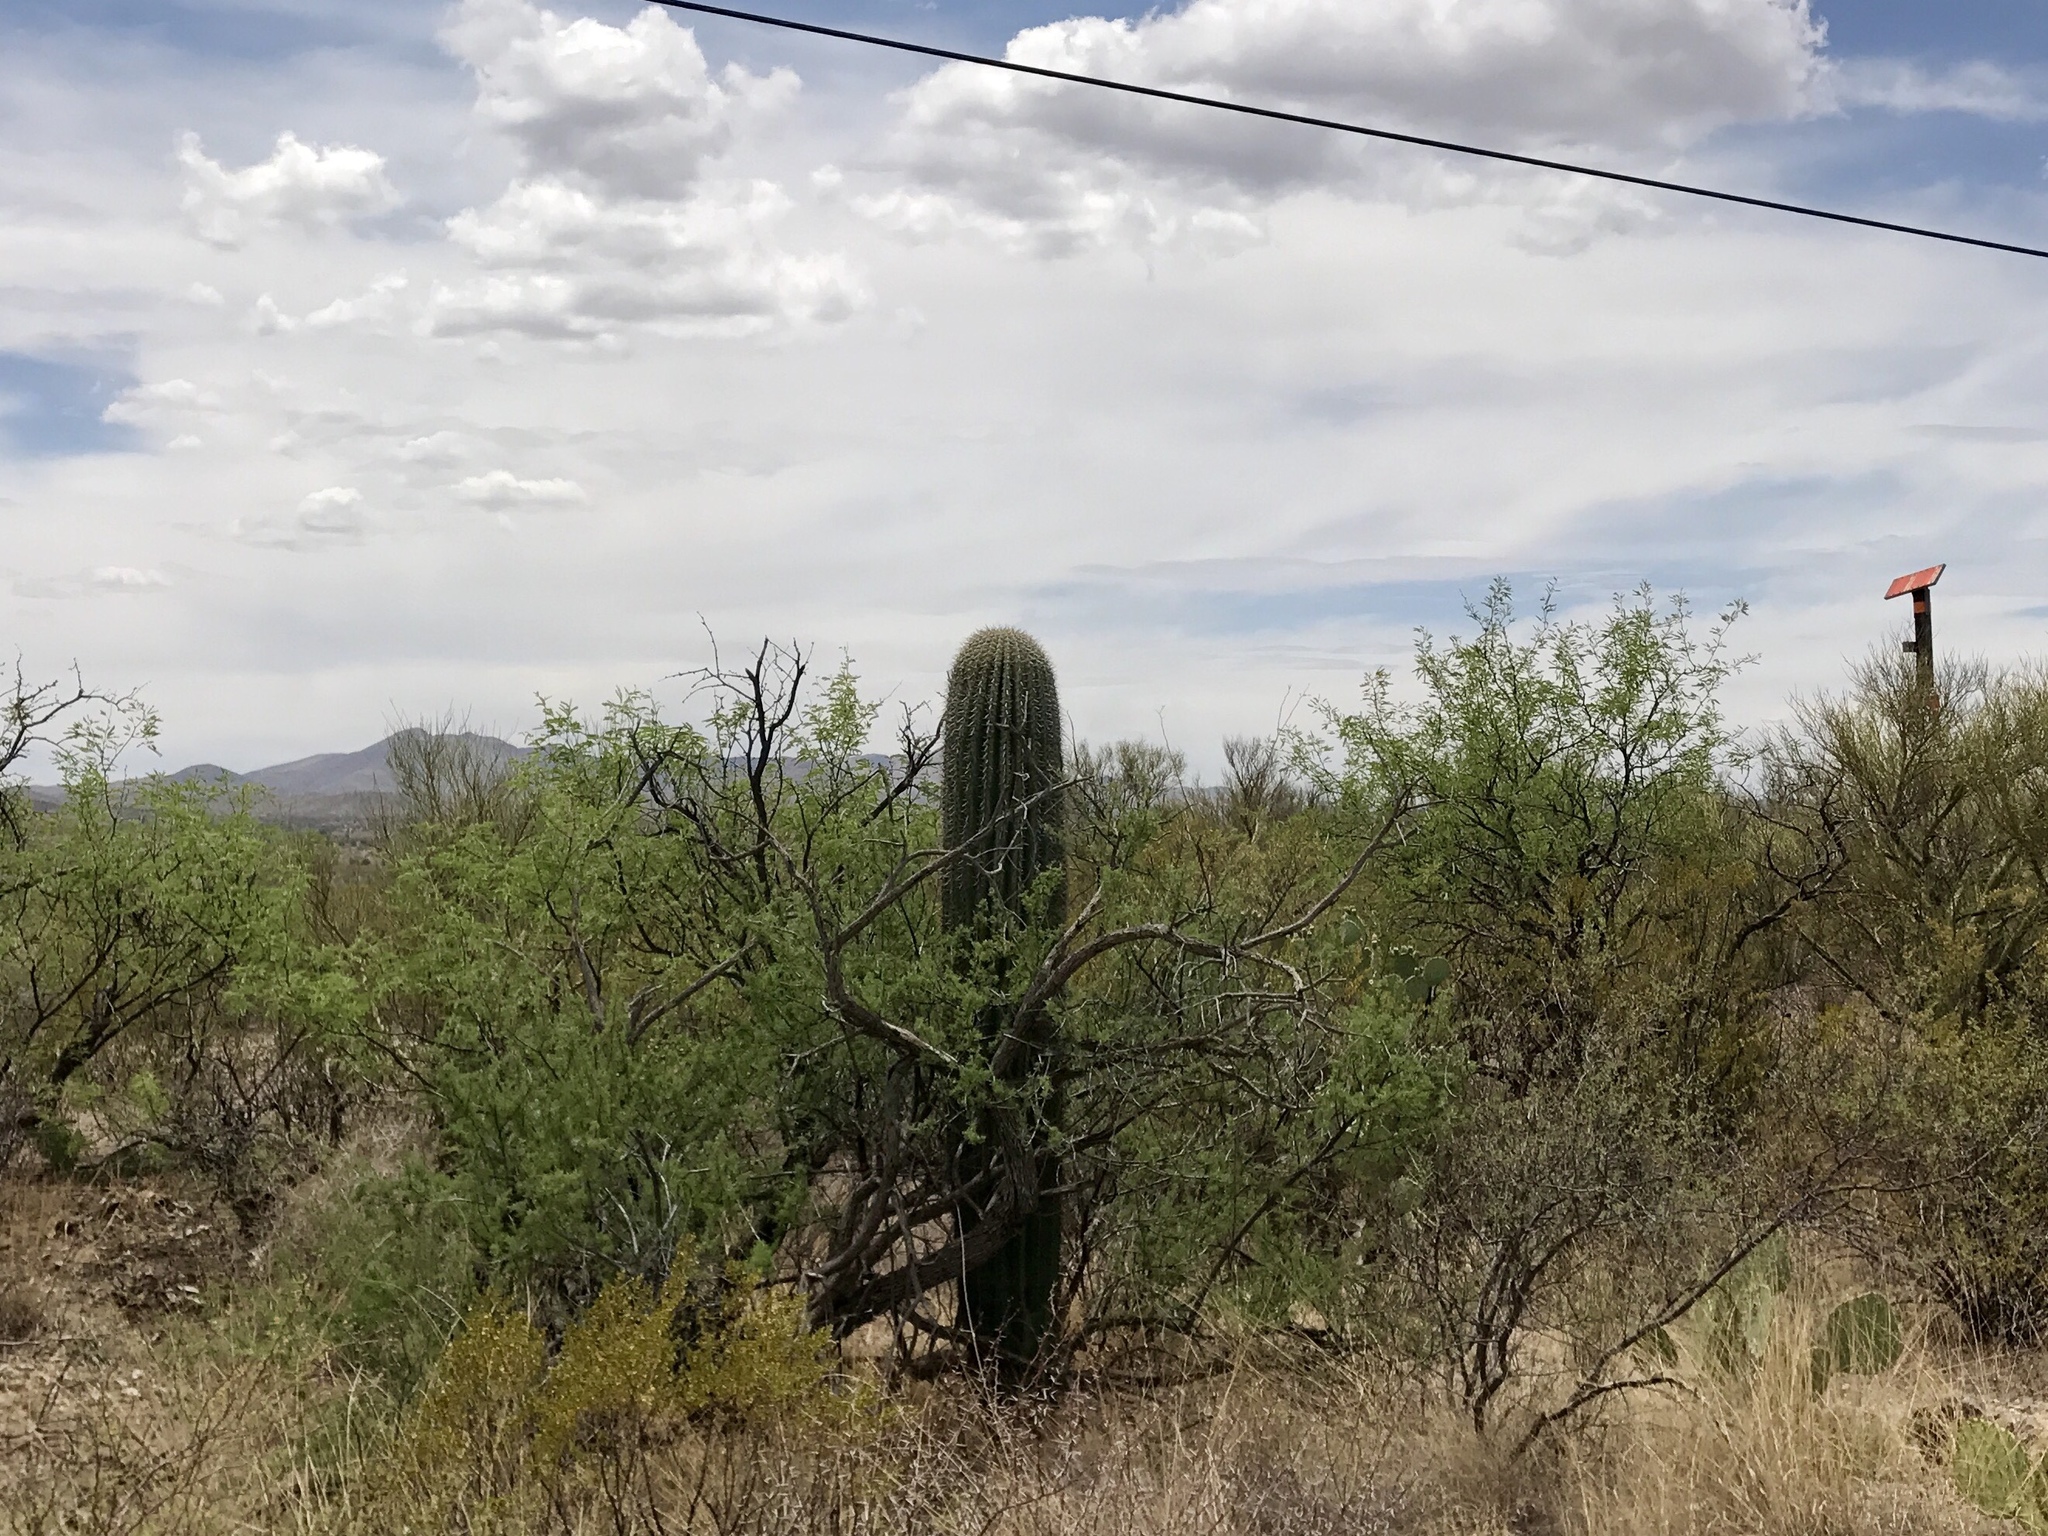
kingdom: Plantae
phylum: Tracheophyta
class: Magnoliopsida
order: Caryophyllales
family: Cactaceae
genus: Carnegiea
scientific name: Carnegiea gigantea
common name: Saguaro
